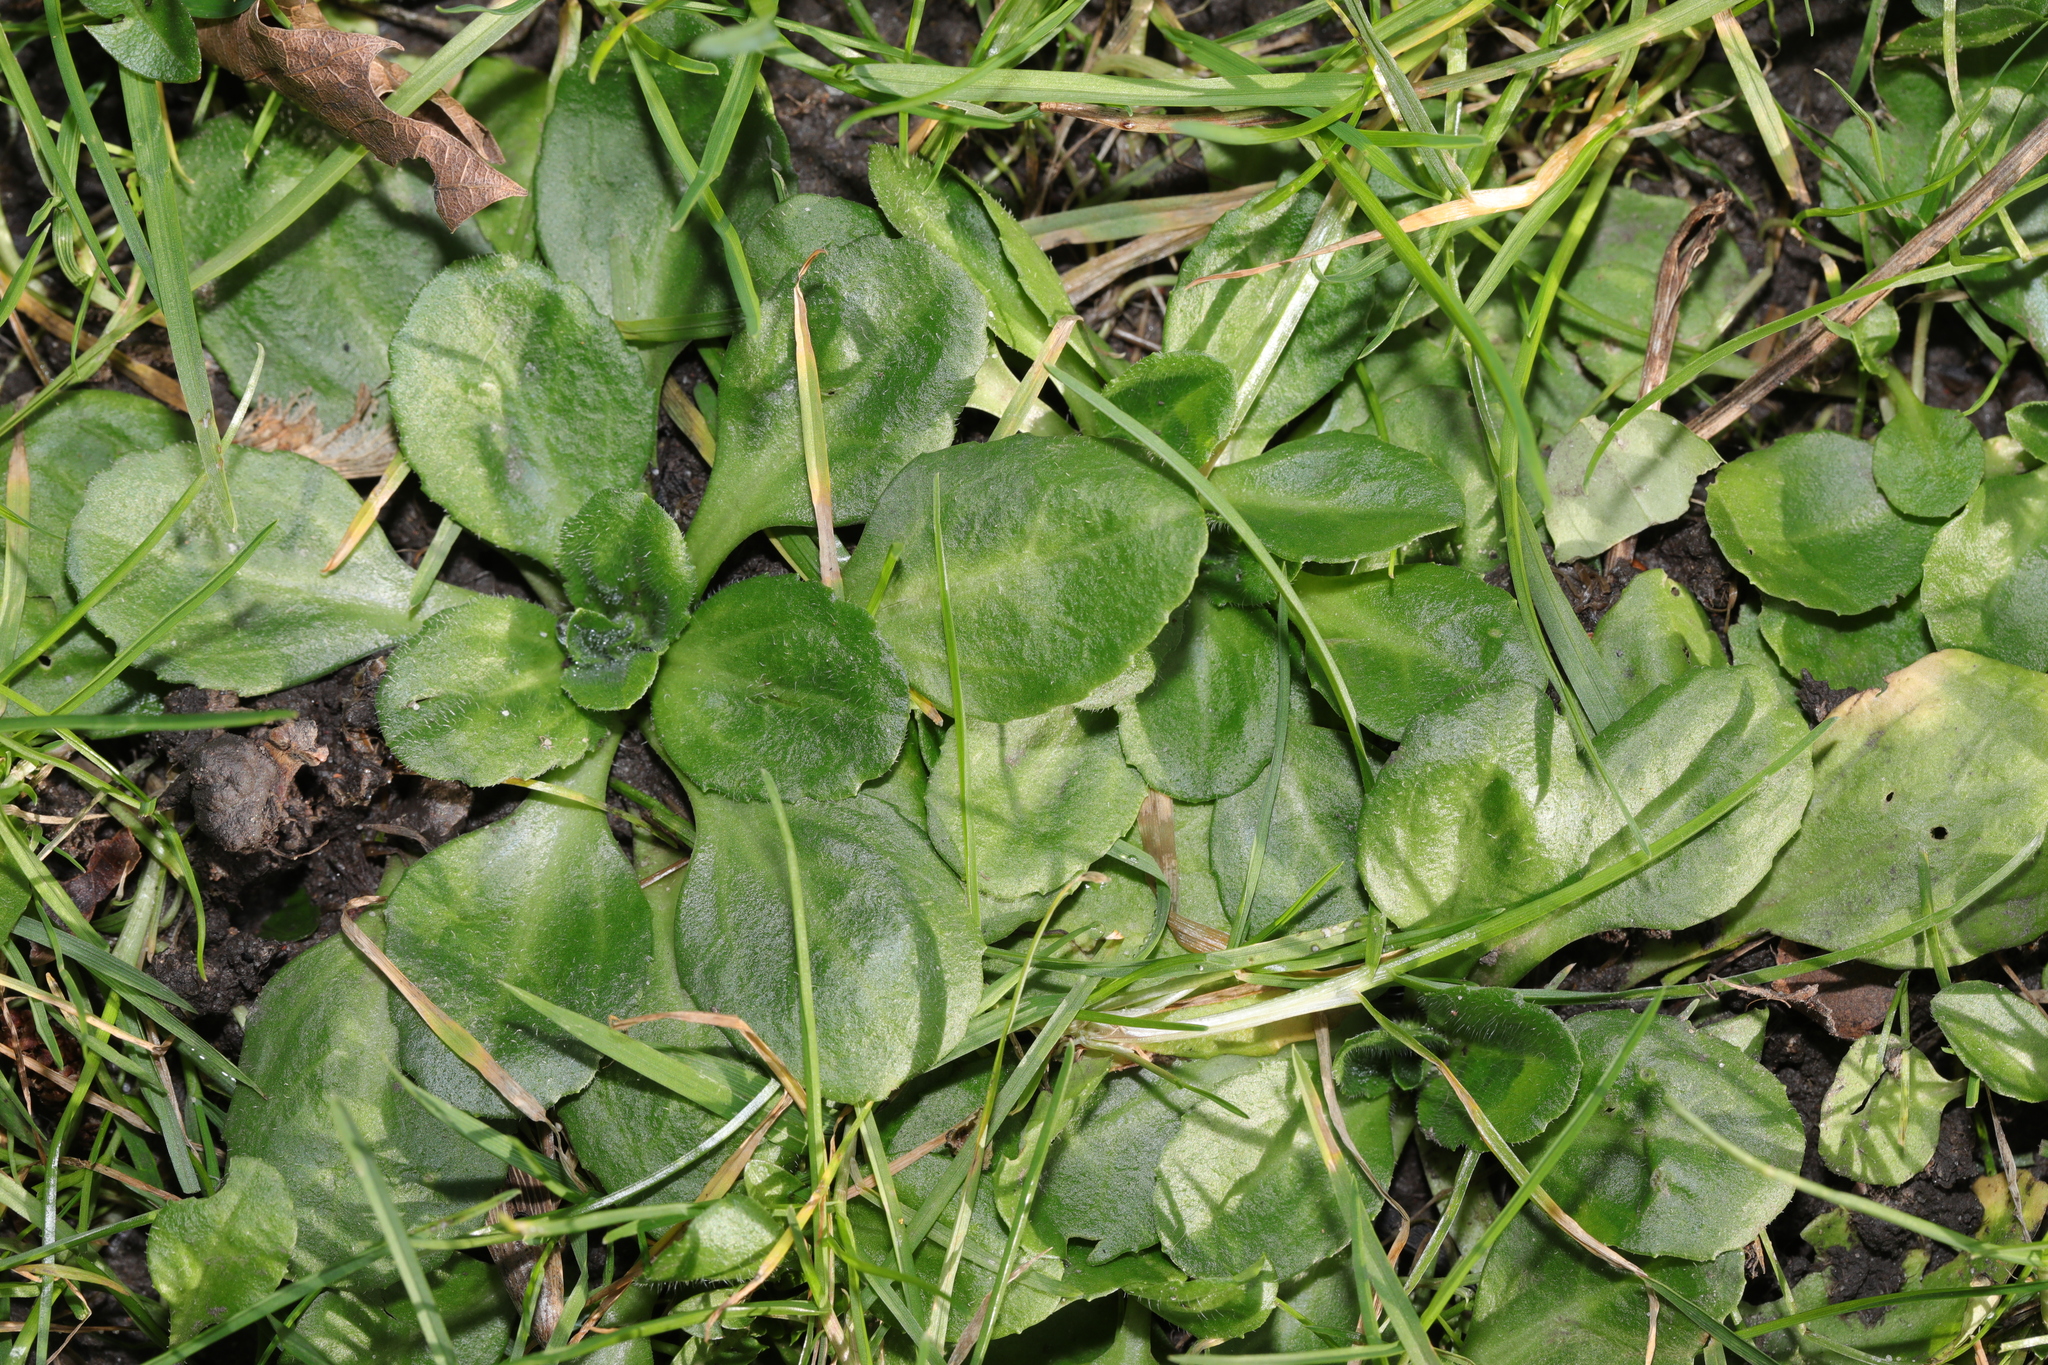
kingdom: Plantae
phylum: Tracheophyta
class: Magnoliopsida
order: Asterales
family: Asteraceae
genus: Bellis
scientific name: Bellis perennis
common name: Lawndaisy
